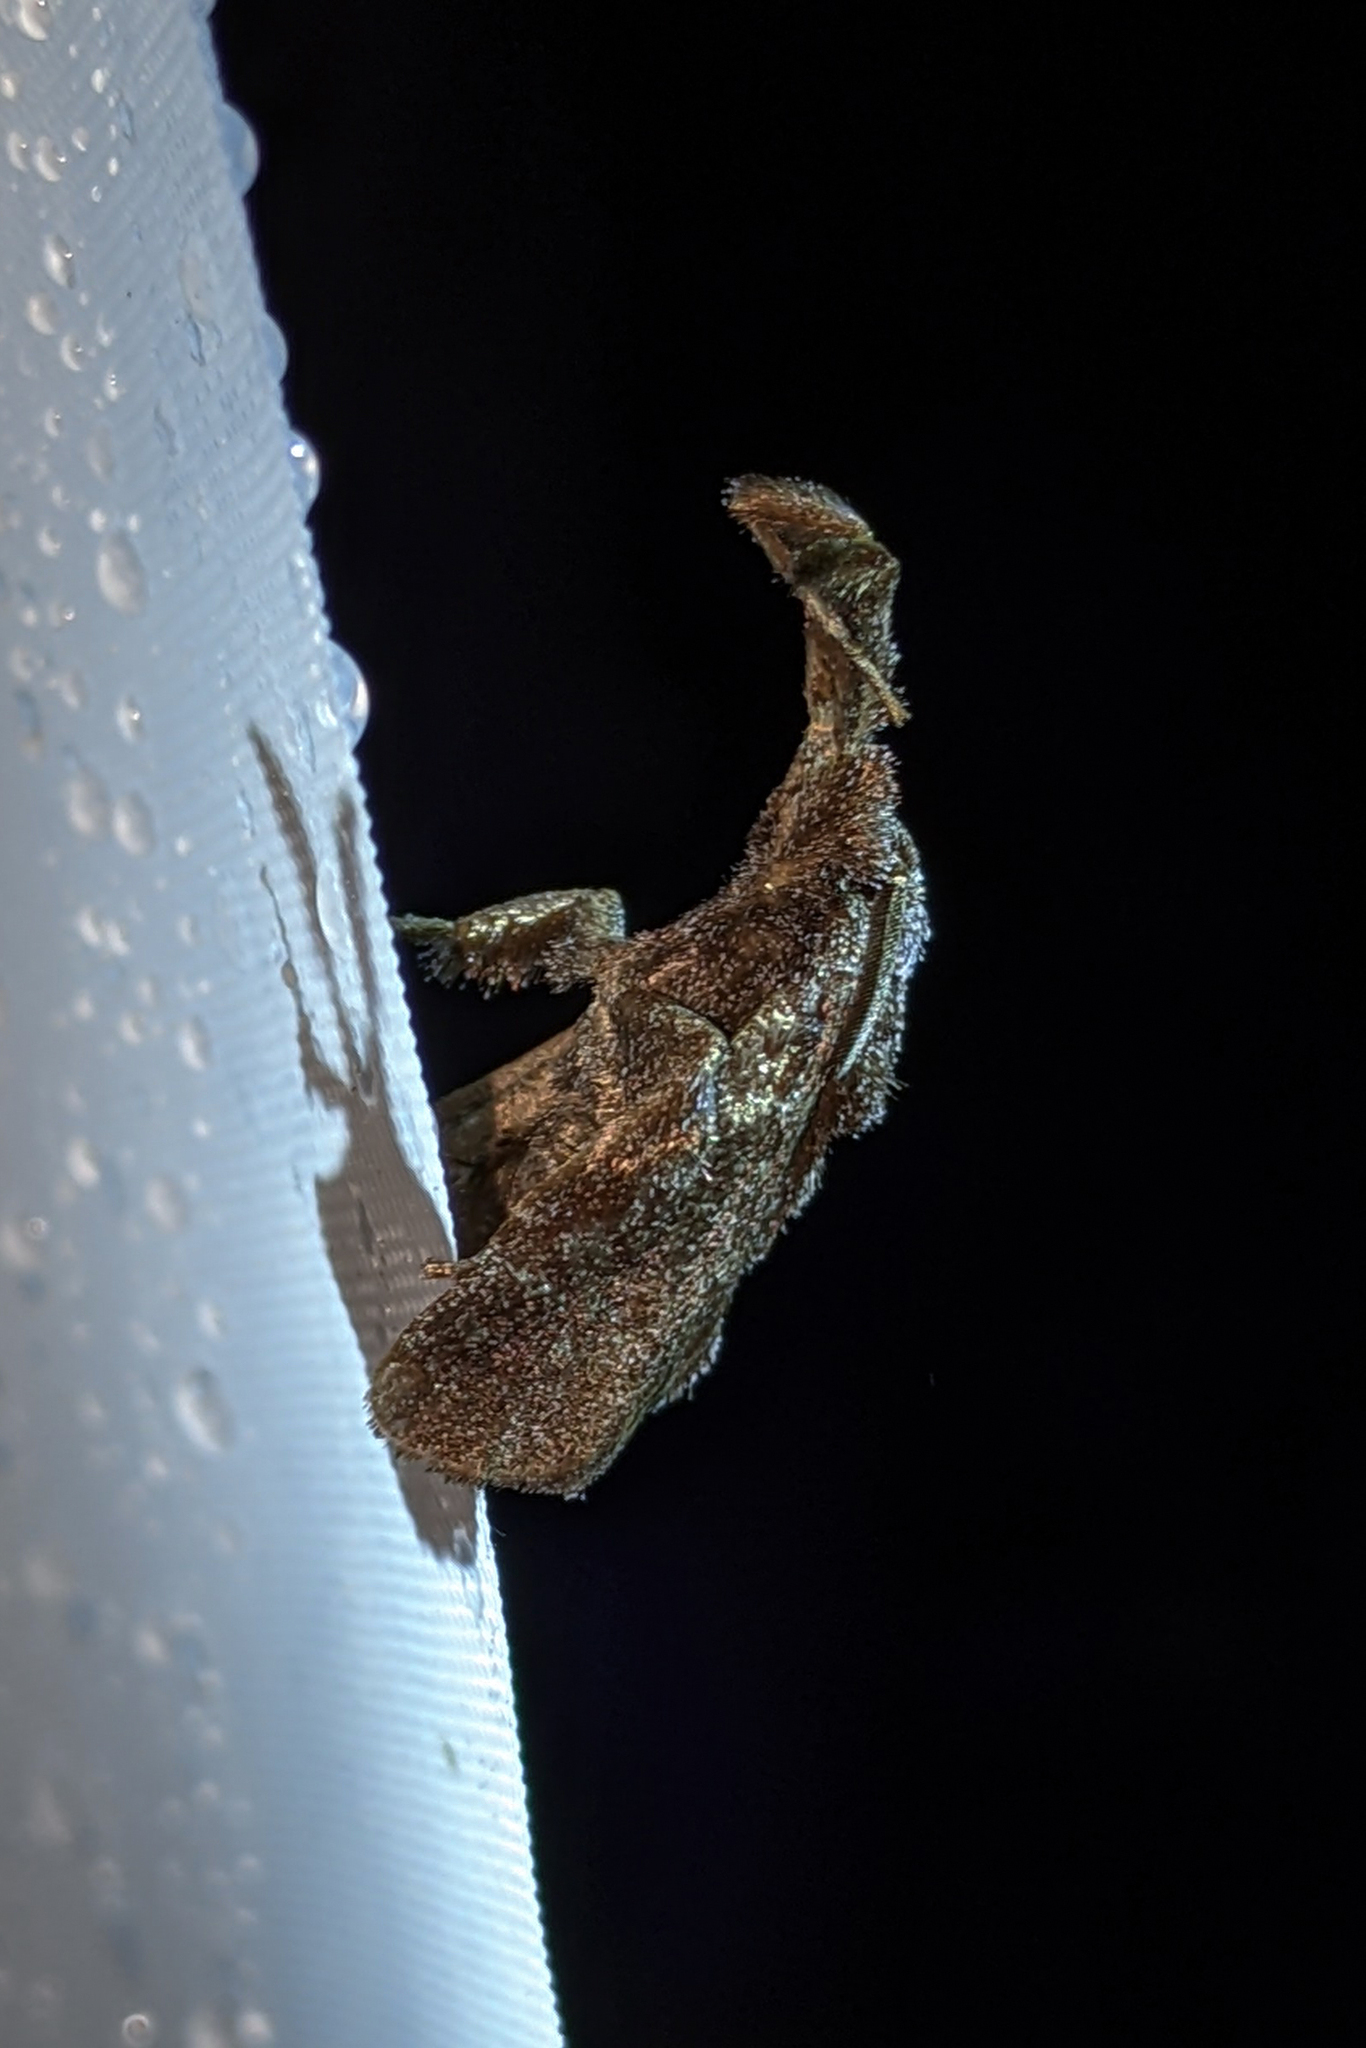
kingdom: Animalia
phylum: Arthropoda
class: Insecta
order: Lepidoptera
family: Limacodidae
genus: Perola
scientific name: Perola repetita
